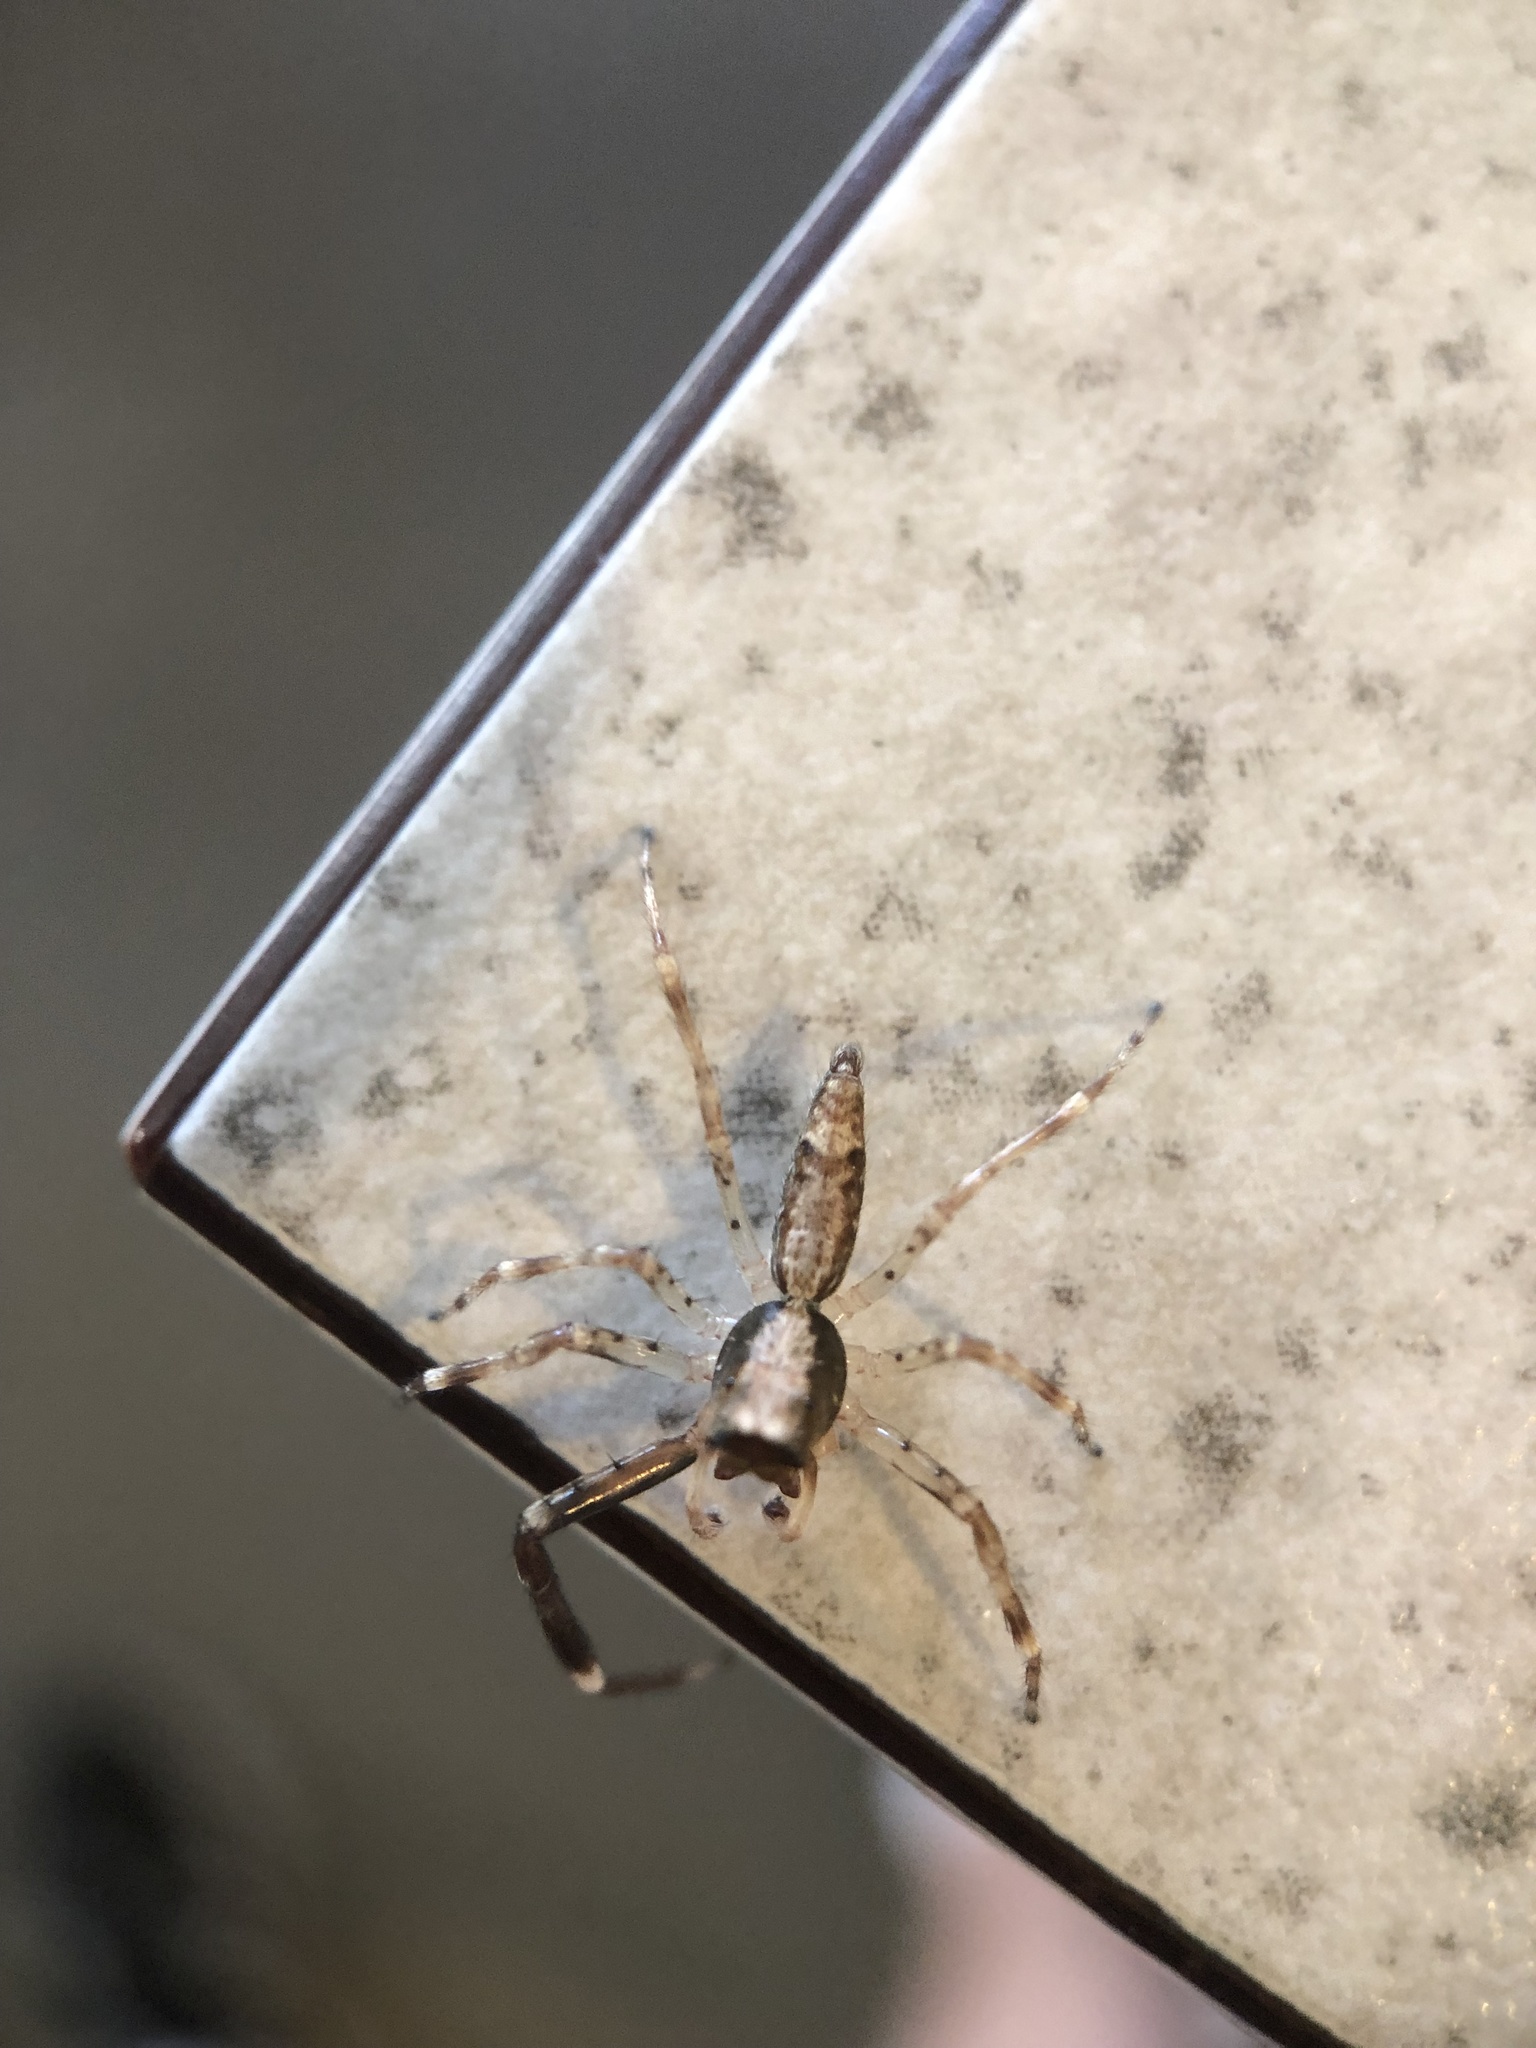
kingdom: Animalia
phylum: Arthropoda
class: Arachnida
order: Araneae
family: Salticidae
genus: Helpis
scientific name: Helpis minitabunda
